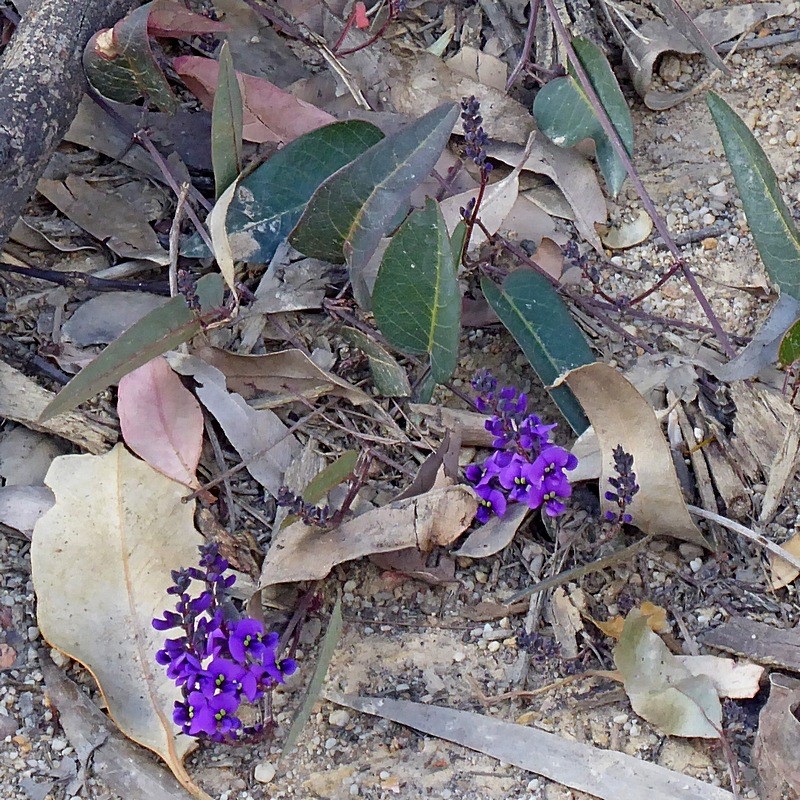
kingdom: Plantae
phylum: Tracheophyta
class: Magnoliopsida
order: Fabales
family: Fabaceae
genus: Hardenbergia
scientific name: Hardenbergia violacea
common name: Coral-pea
